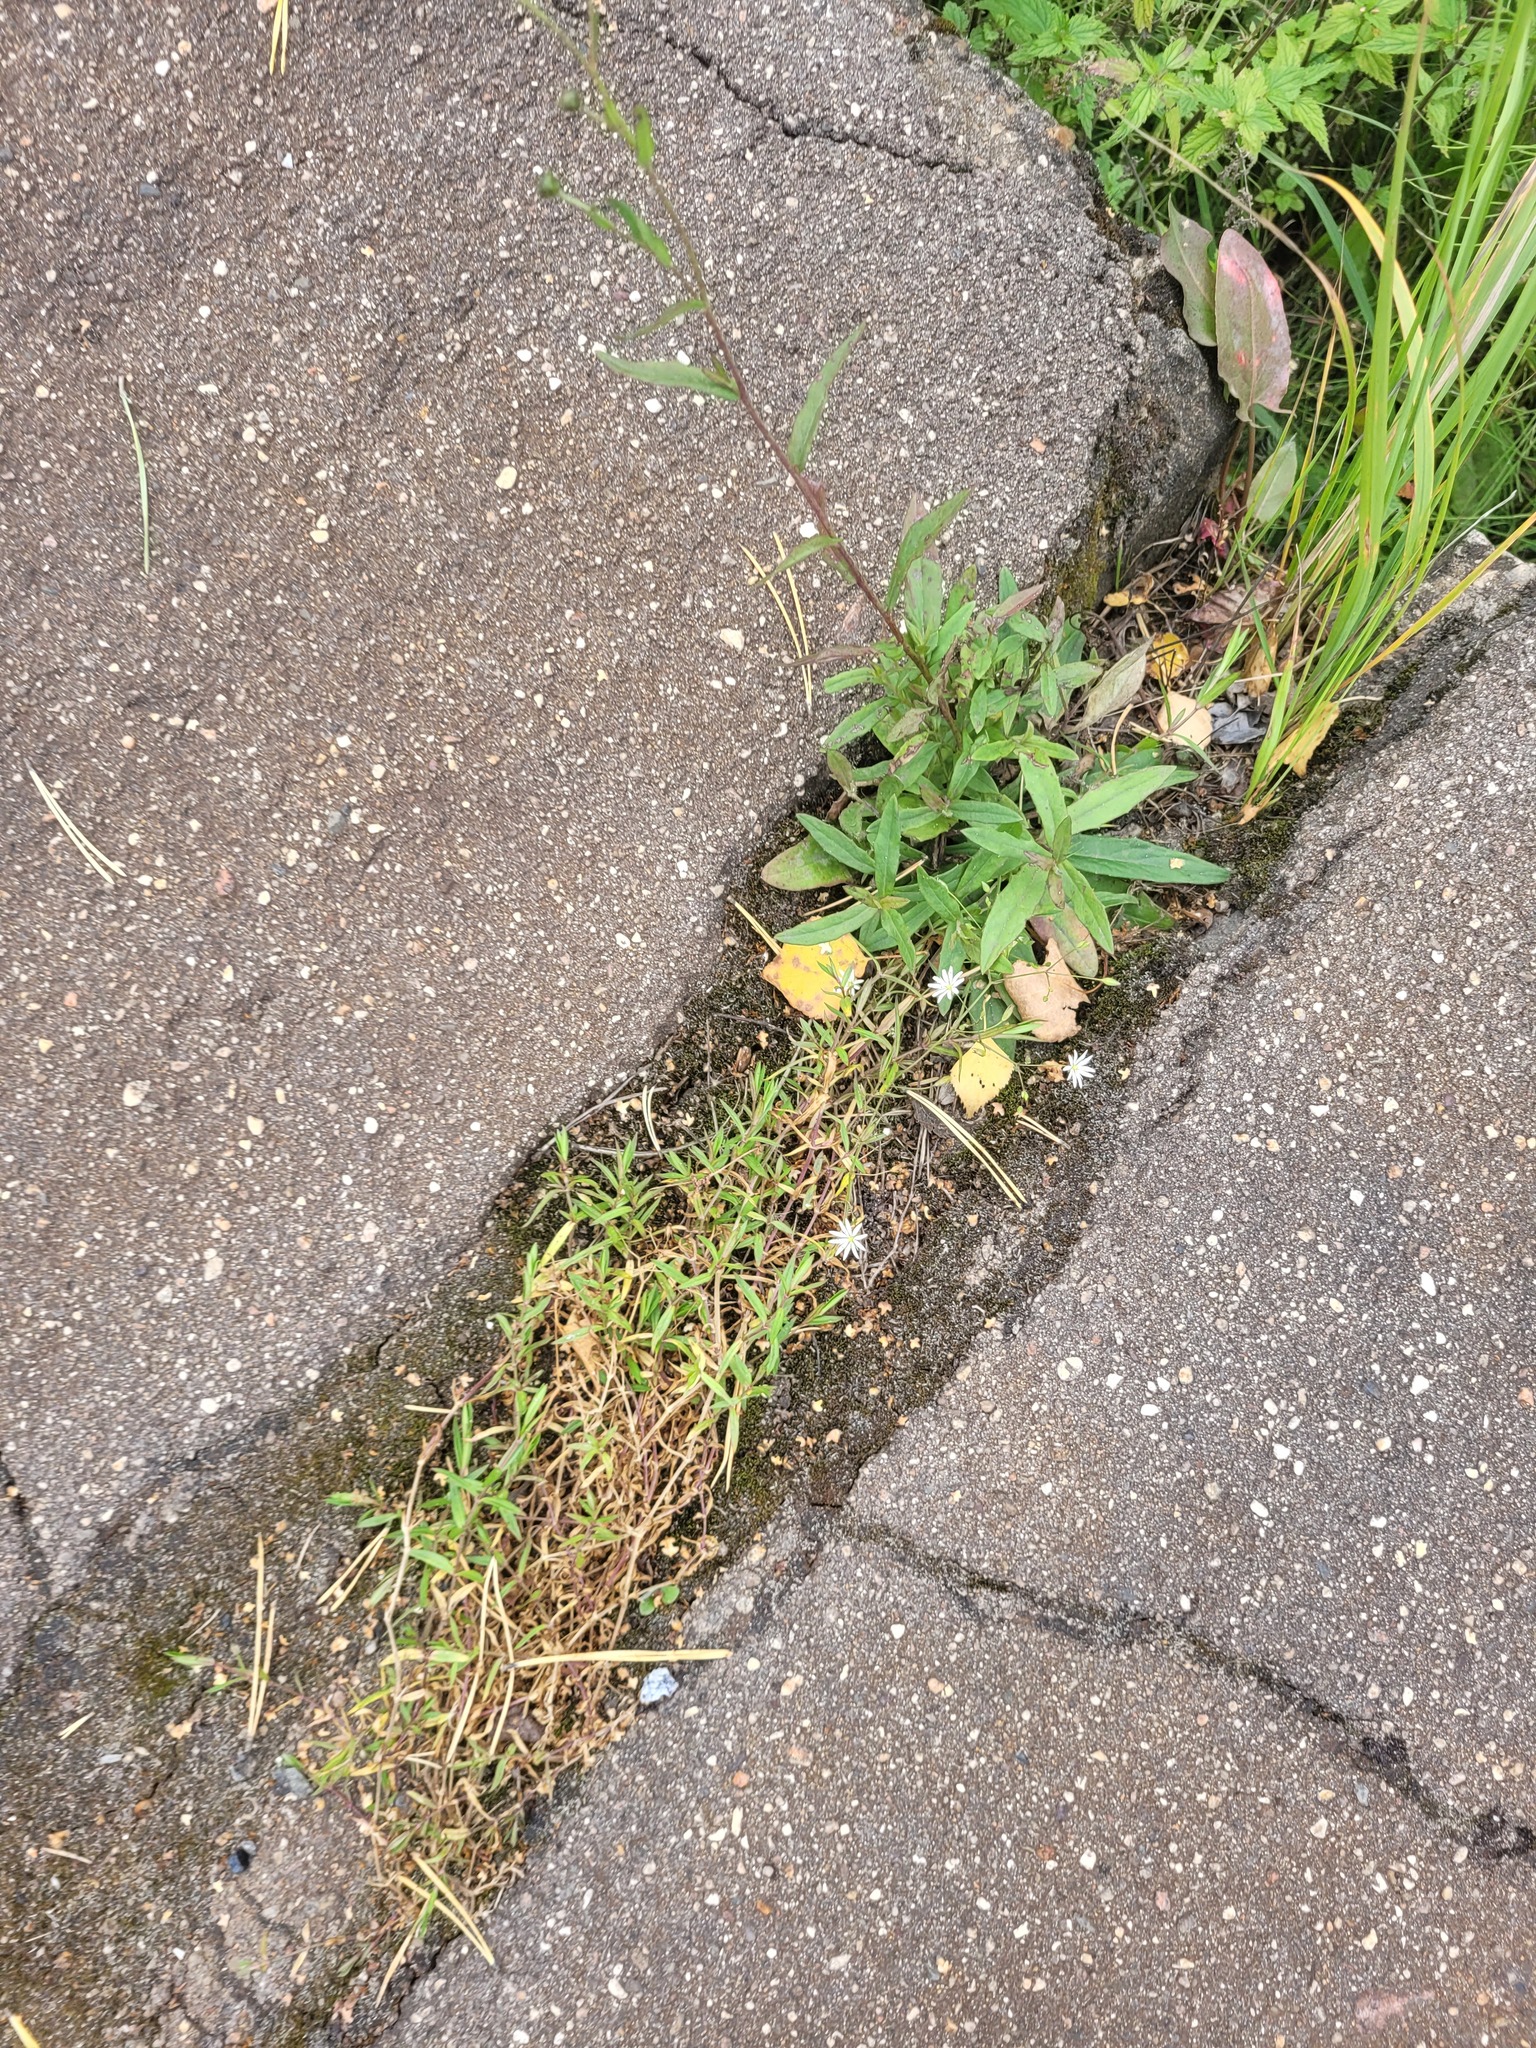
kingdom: Plantae
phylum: Tracheophyta
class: Magnoliopsida
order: Caryophyllales
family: Caryophyllaceae
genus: Stellaria
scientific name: Stellaria graminea
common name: Grass-like starwort
